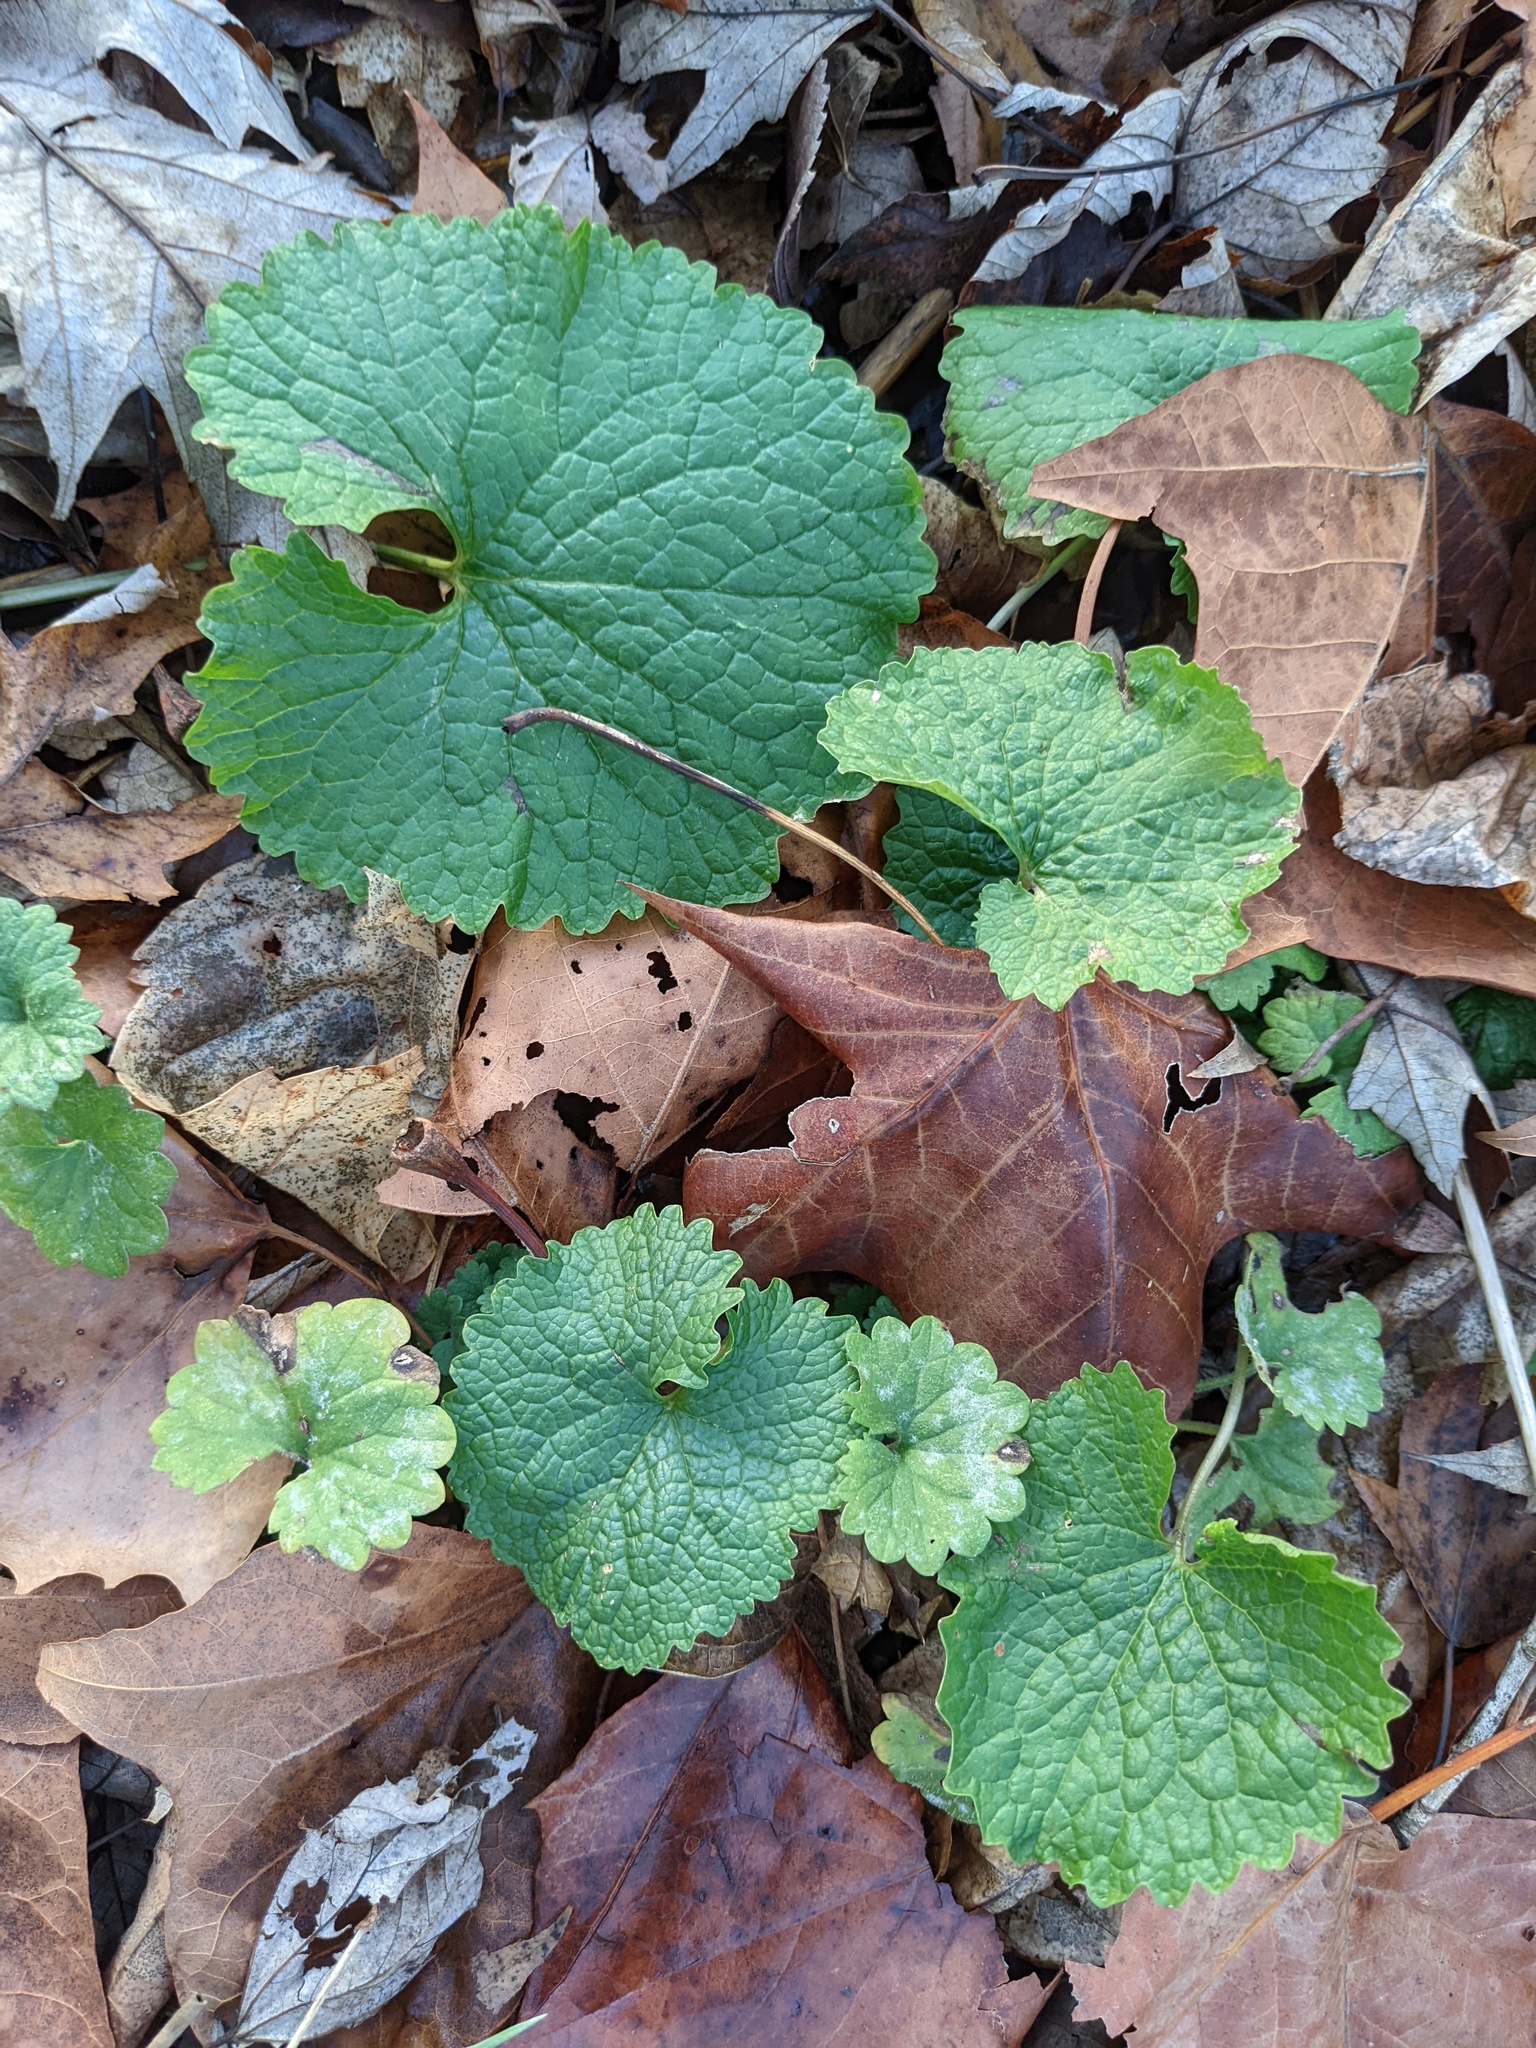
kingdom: Plantae
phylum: Tracheophyta
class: Magnoliopsida
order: Brassicales
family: Brassicaceae
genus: Alliaria
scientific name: Alliaria petiolata
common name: Garlic mustard
